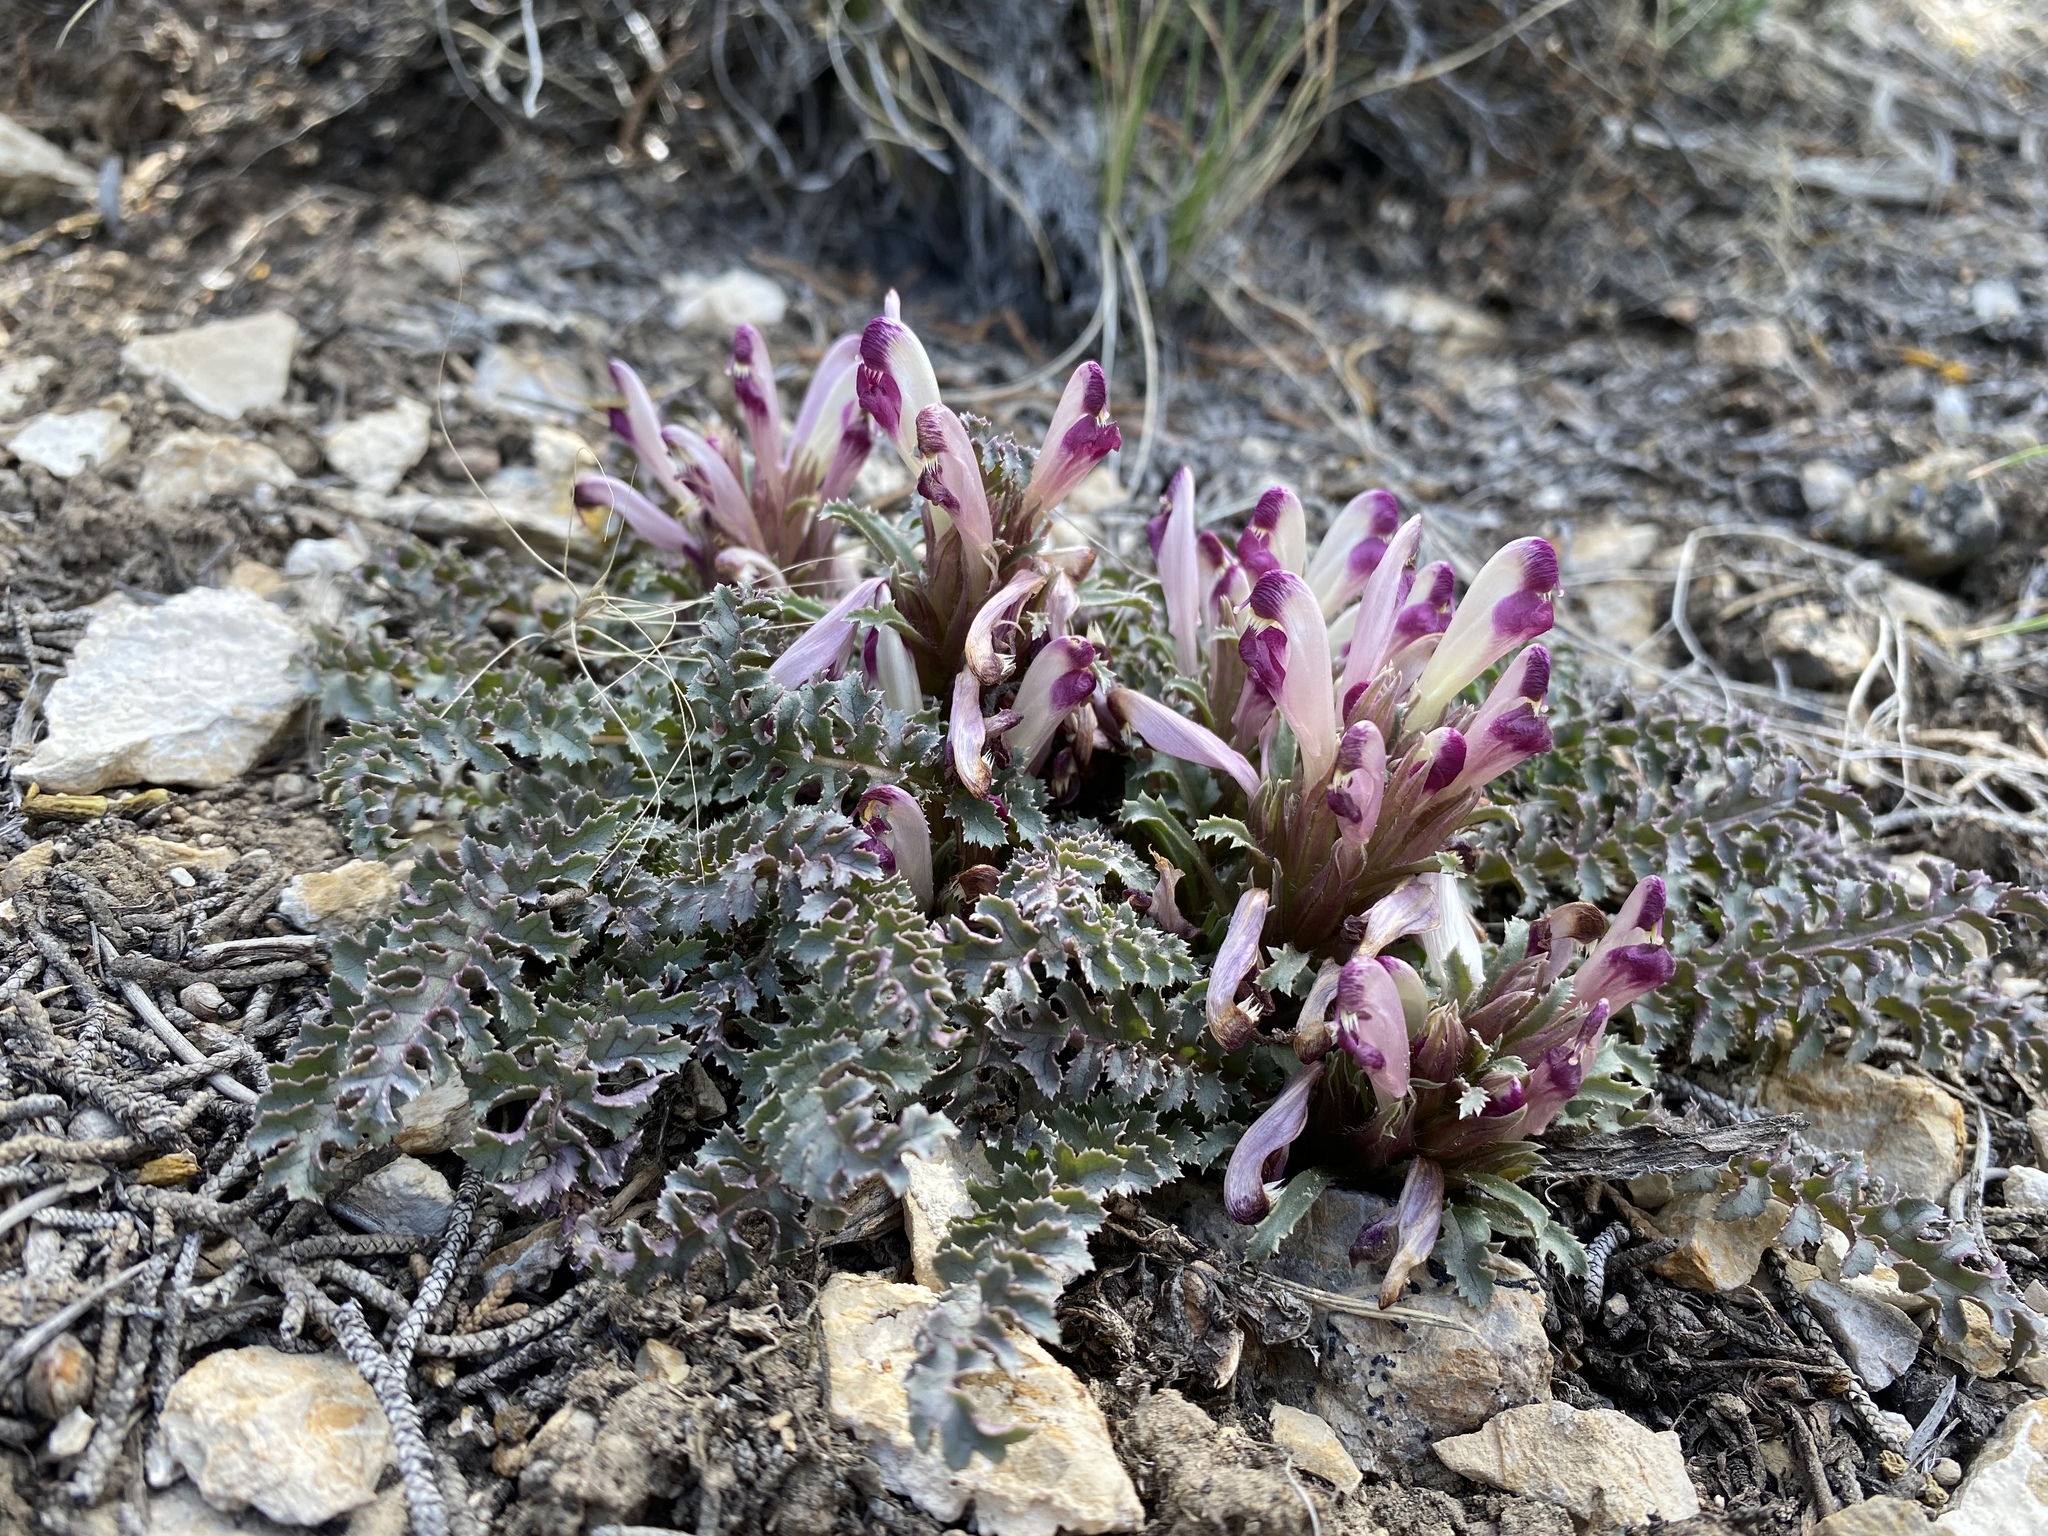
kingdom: Plantae
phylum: Tracheophyta
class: Magnoliopsida
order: Lamiales
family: Orobanchaceae
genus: Pedicularis
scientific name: Pedicularis centranthera
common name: Dwarf lousewort
